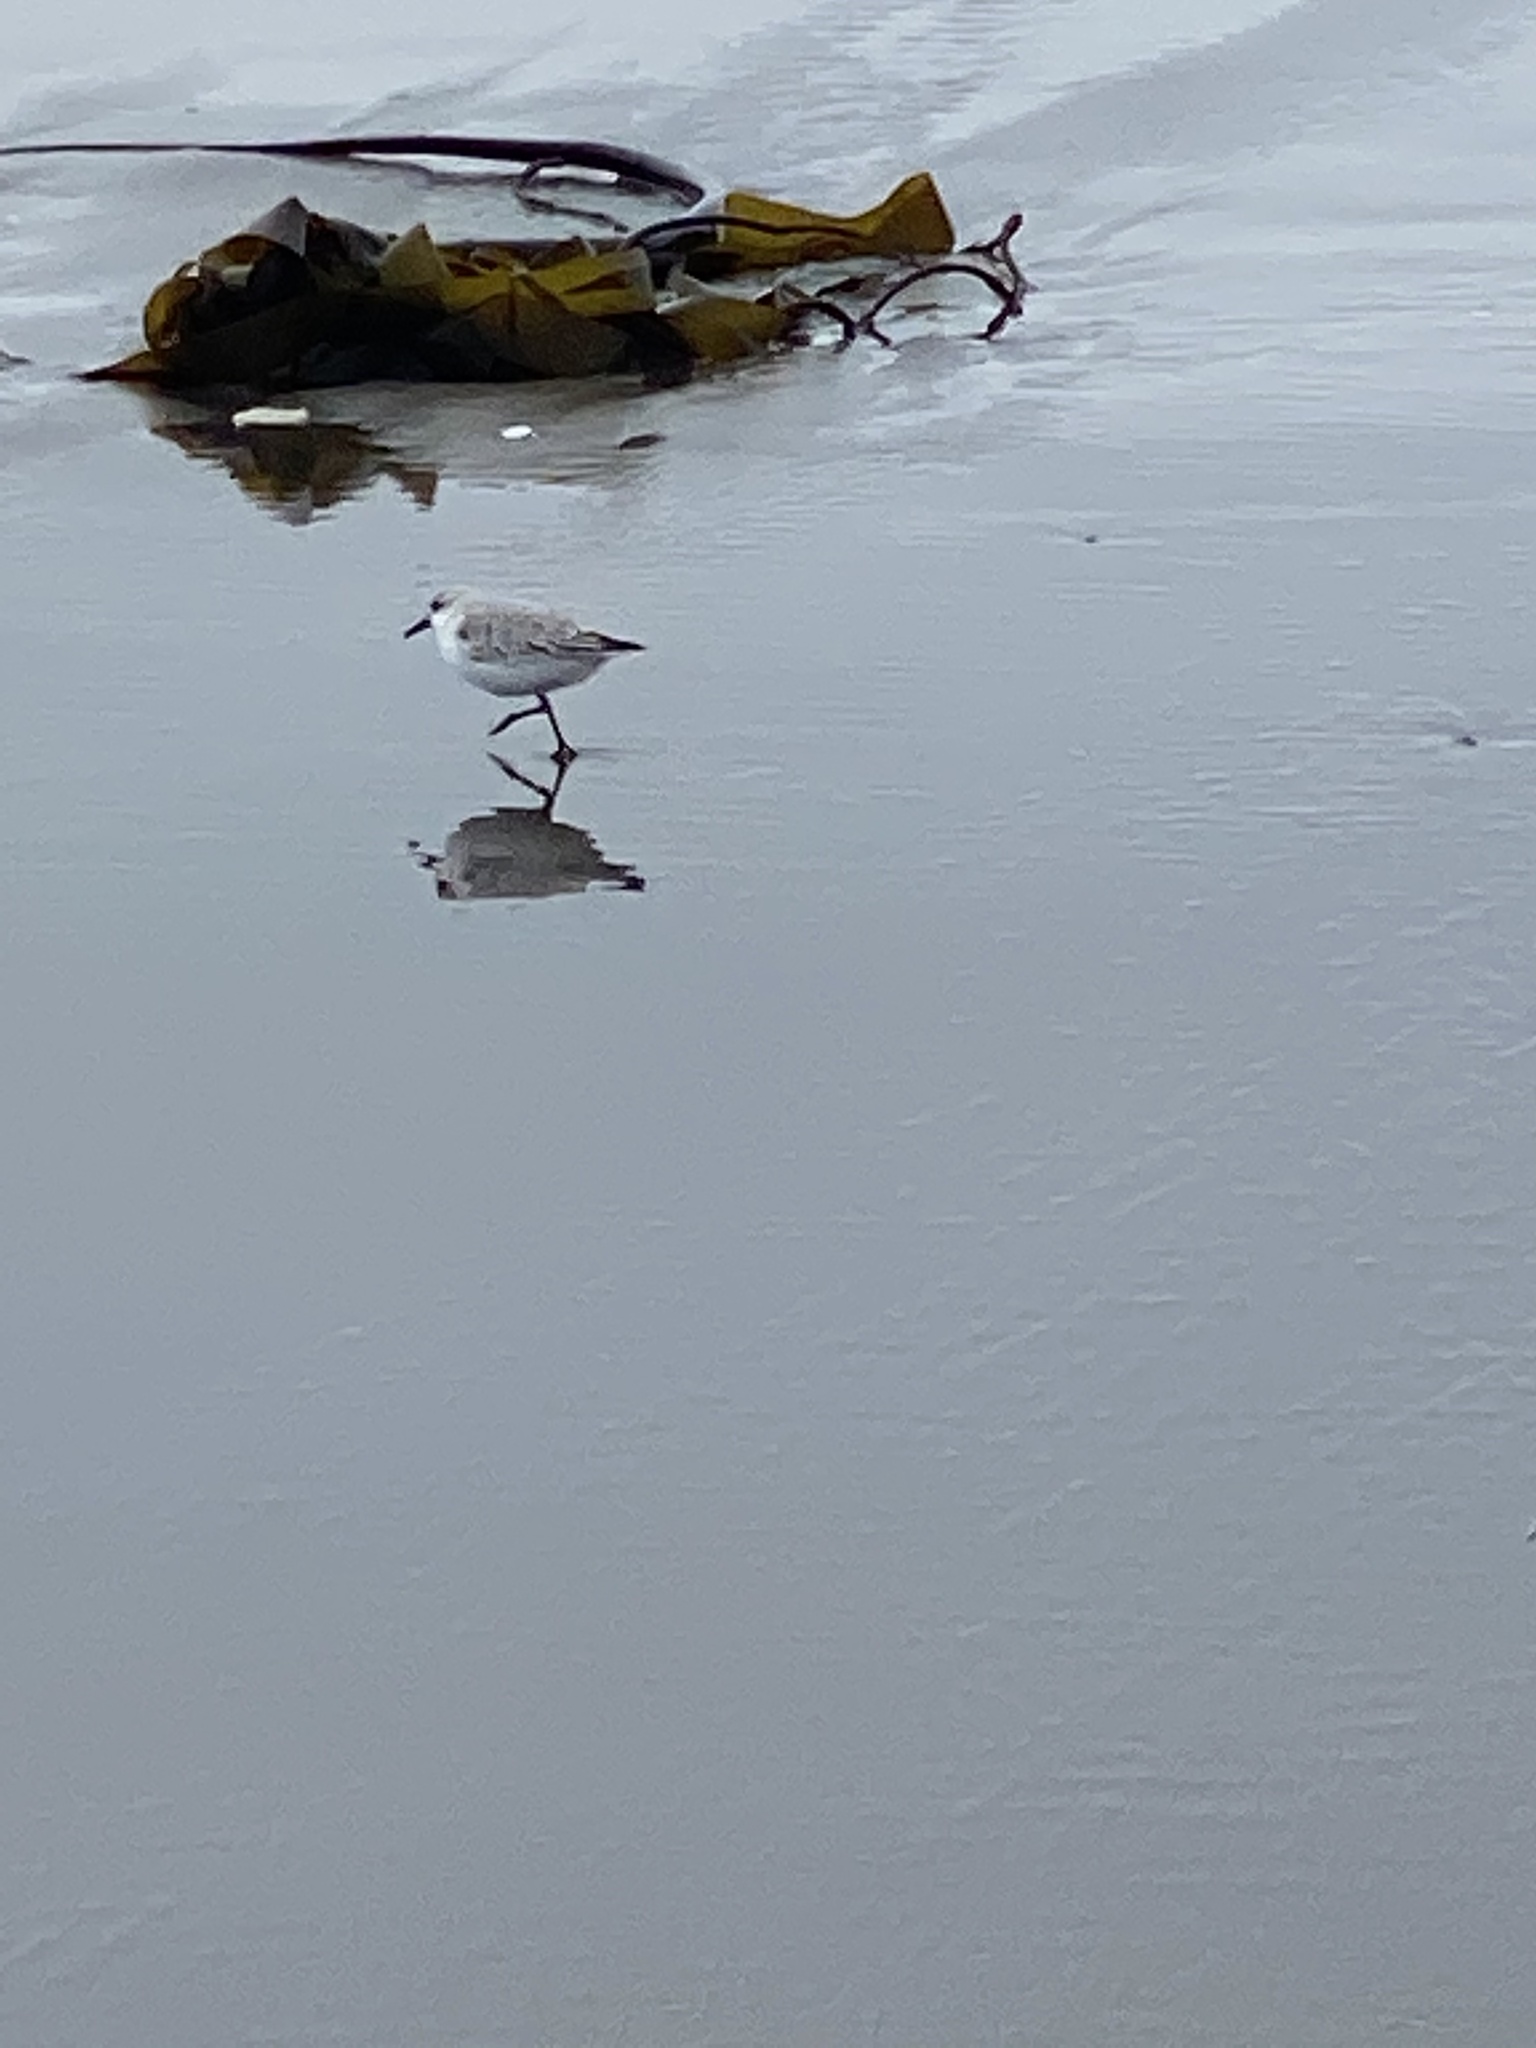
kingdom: Animalia
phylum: Chordata
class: Aves
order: Charadriiformes
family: Scolopacidae
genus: Calidris
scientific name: Calidris alba
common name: Sanderling
